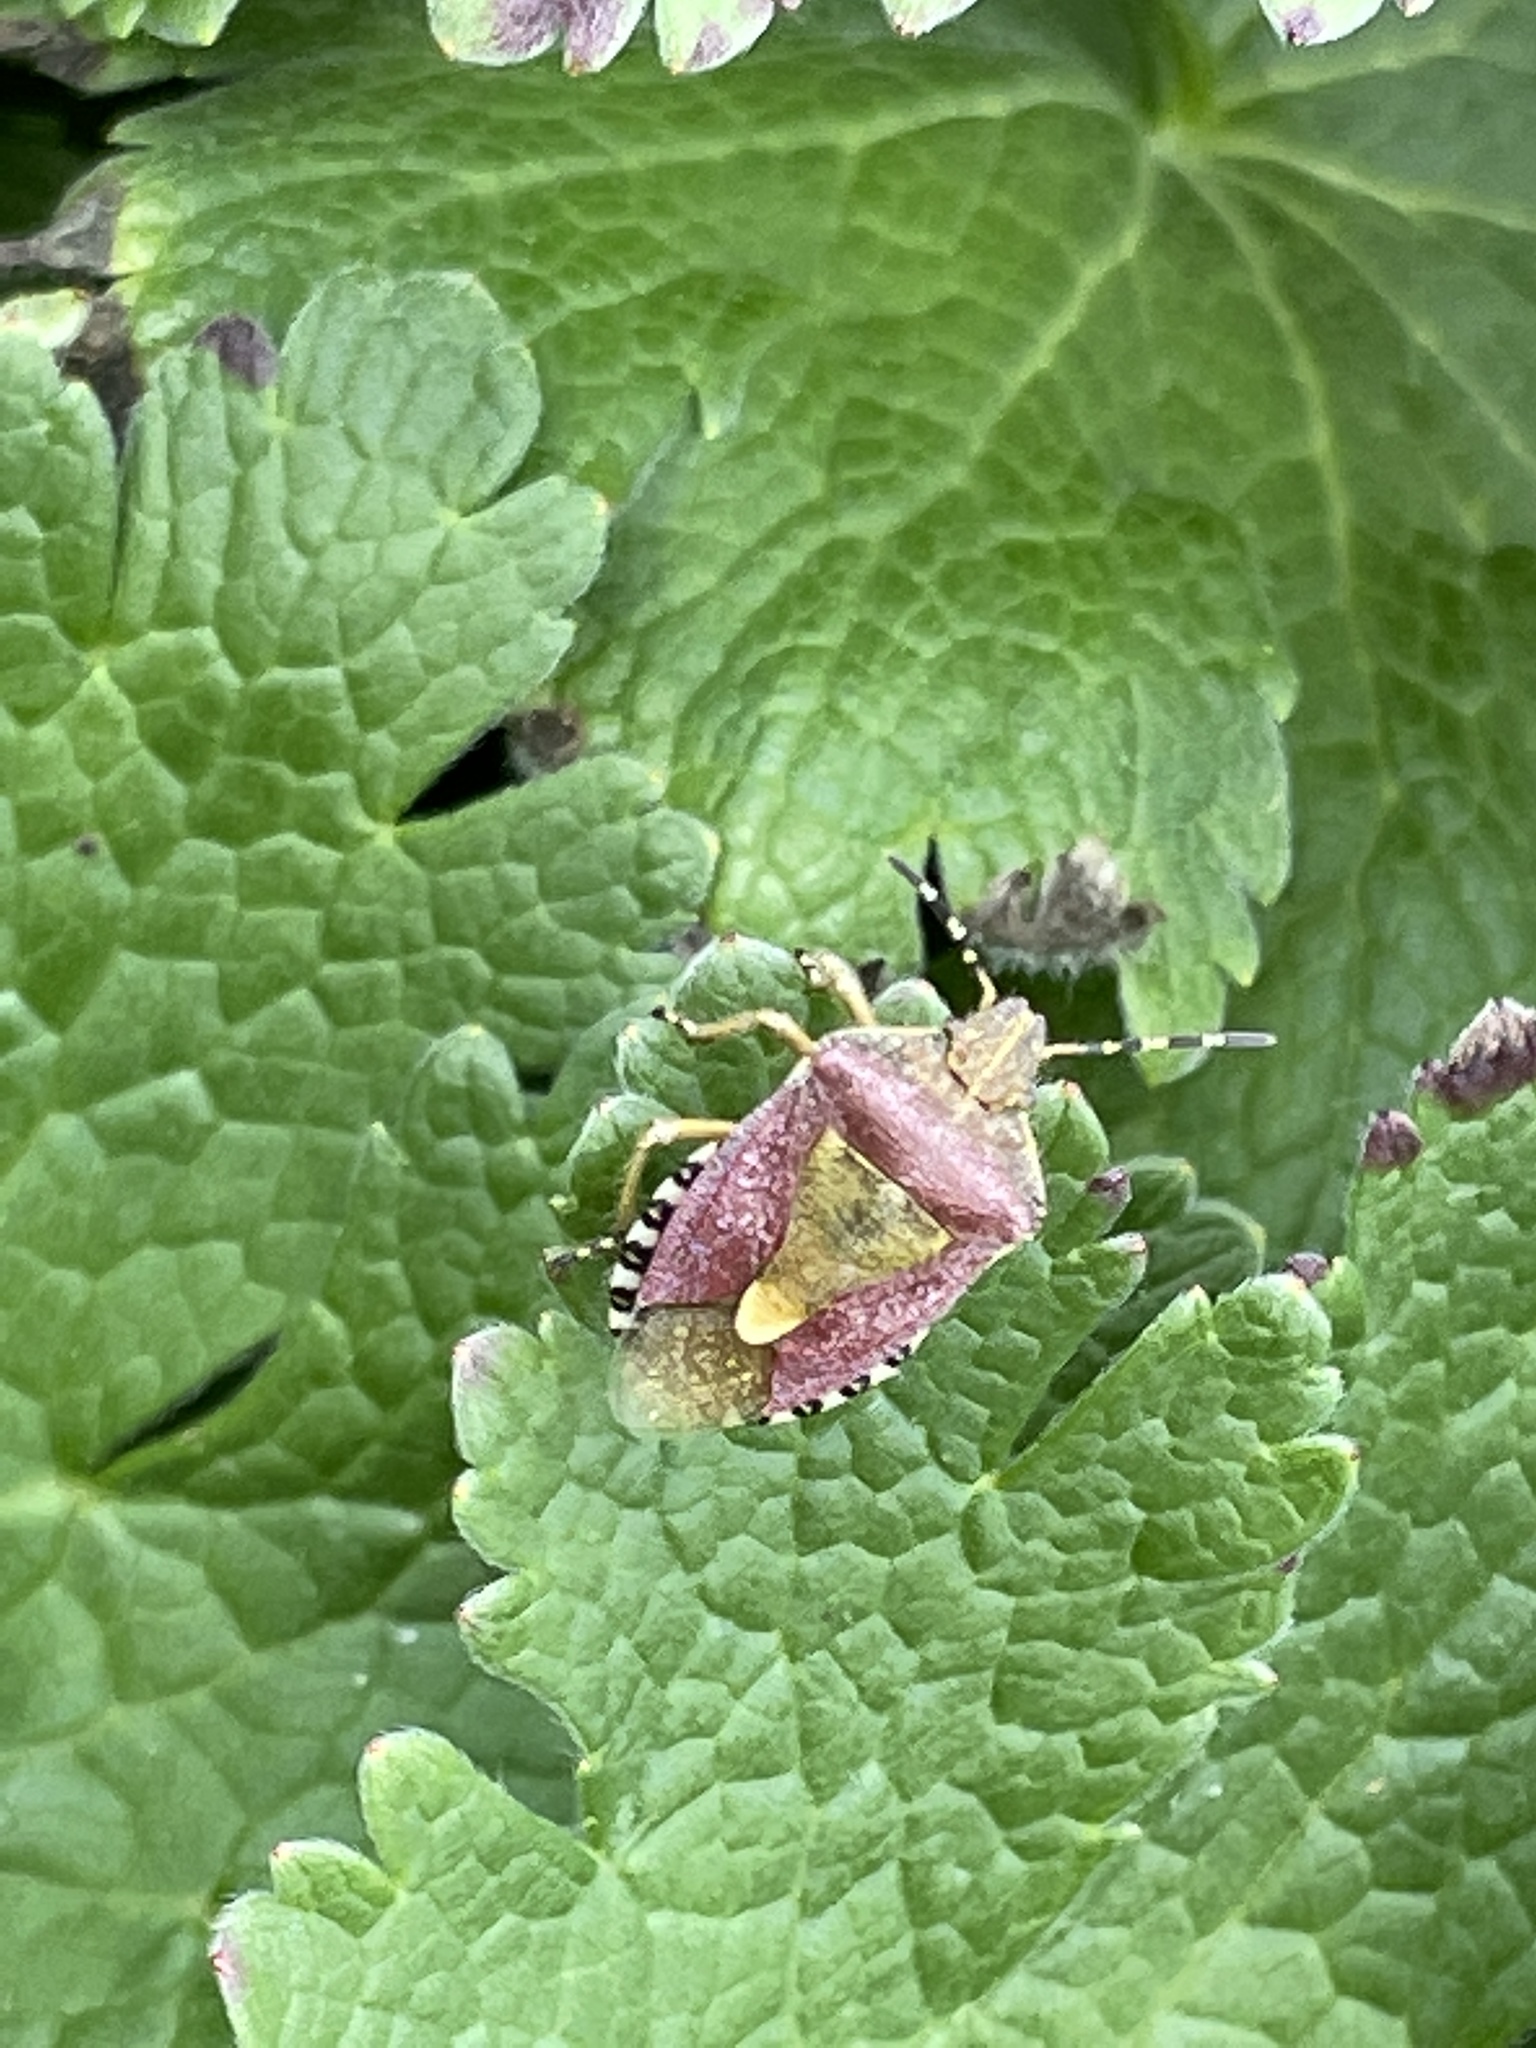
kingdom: Animalia
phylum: Arthropoda
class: Insecta
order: Hemiptera
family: Pentatomidae
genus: Dolycoris
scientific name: Dolycoris baccarum
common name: Sloe bug
